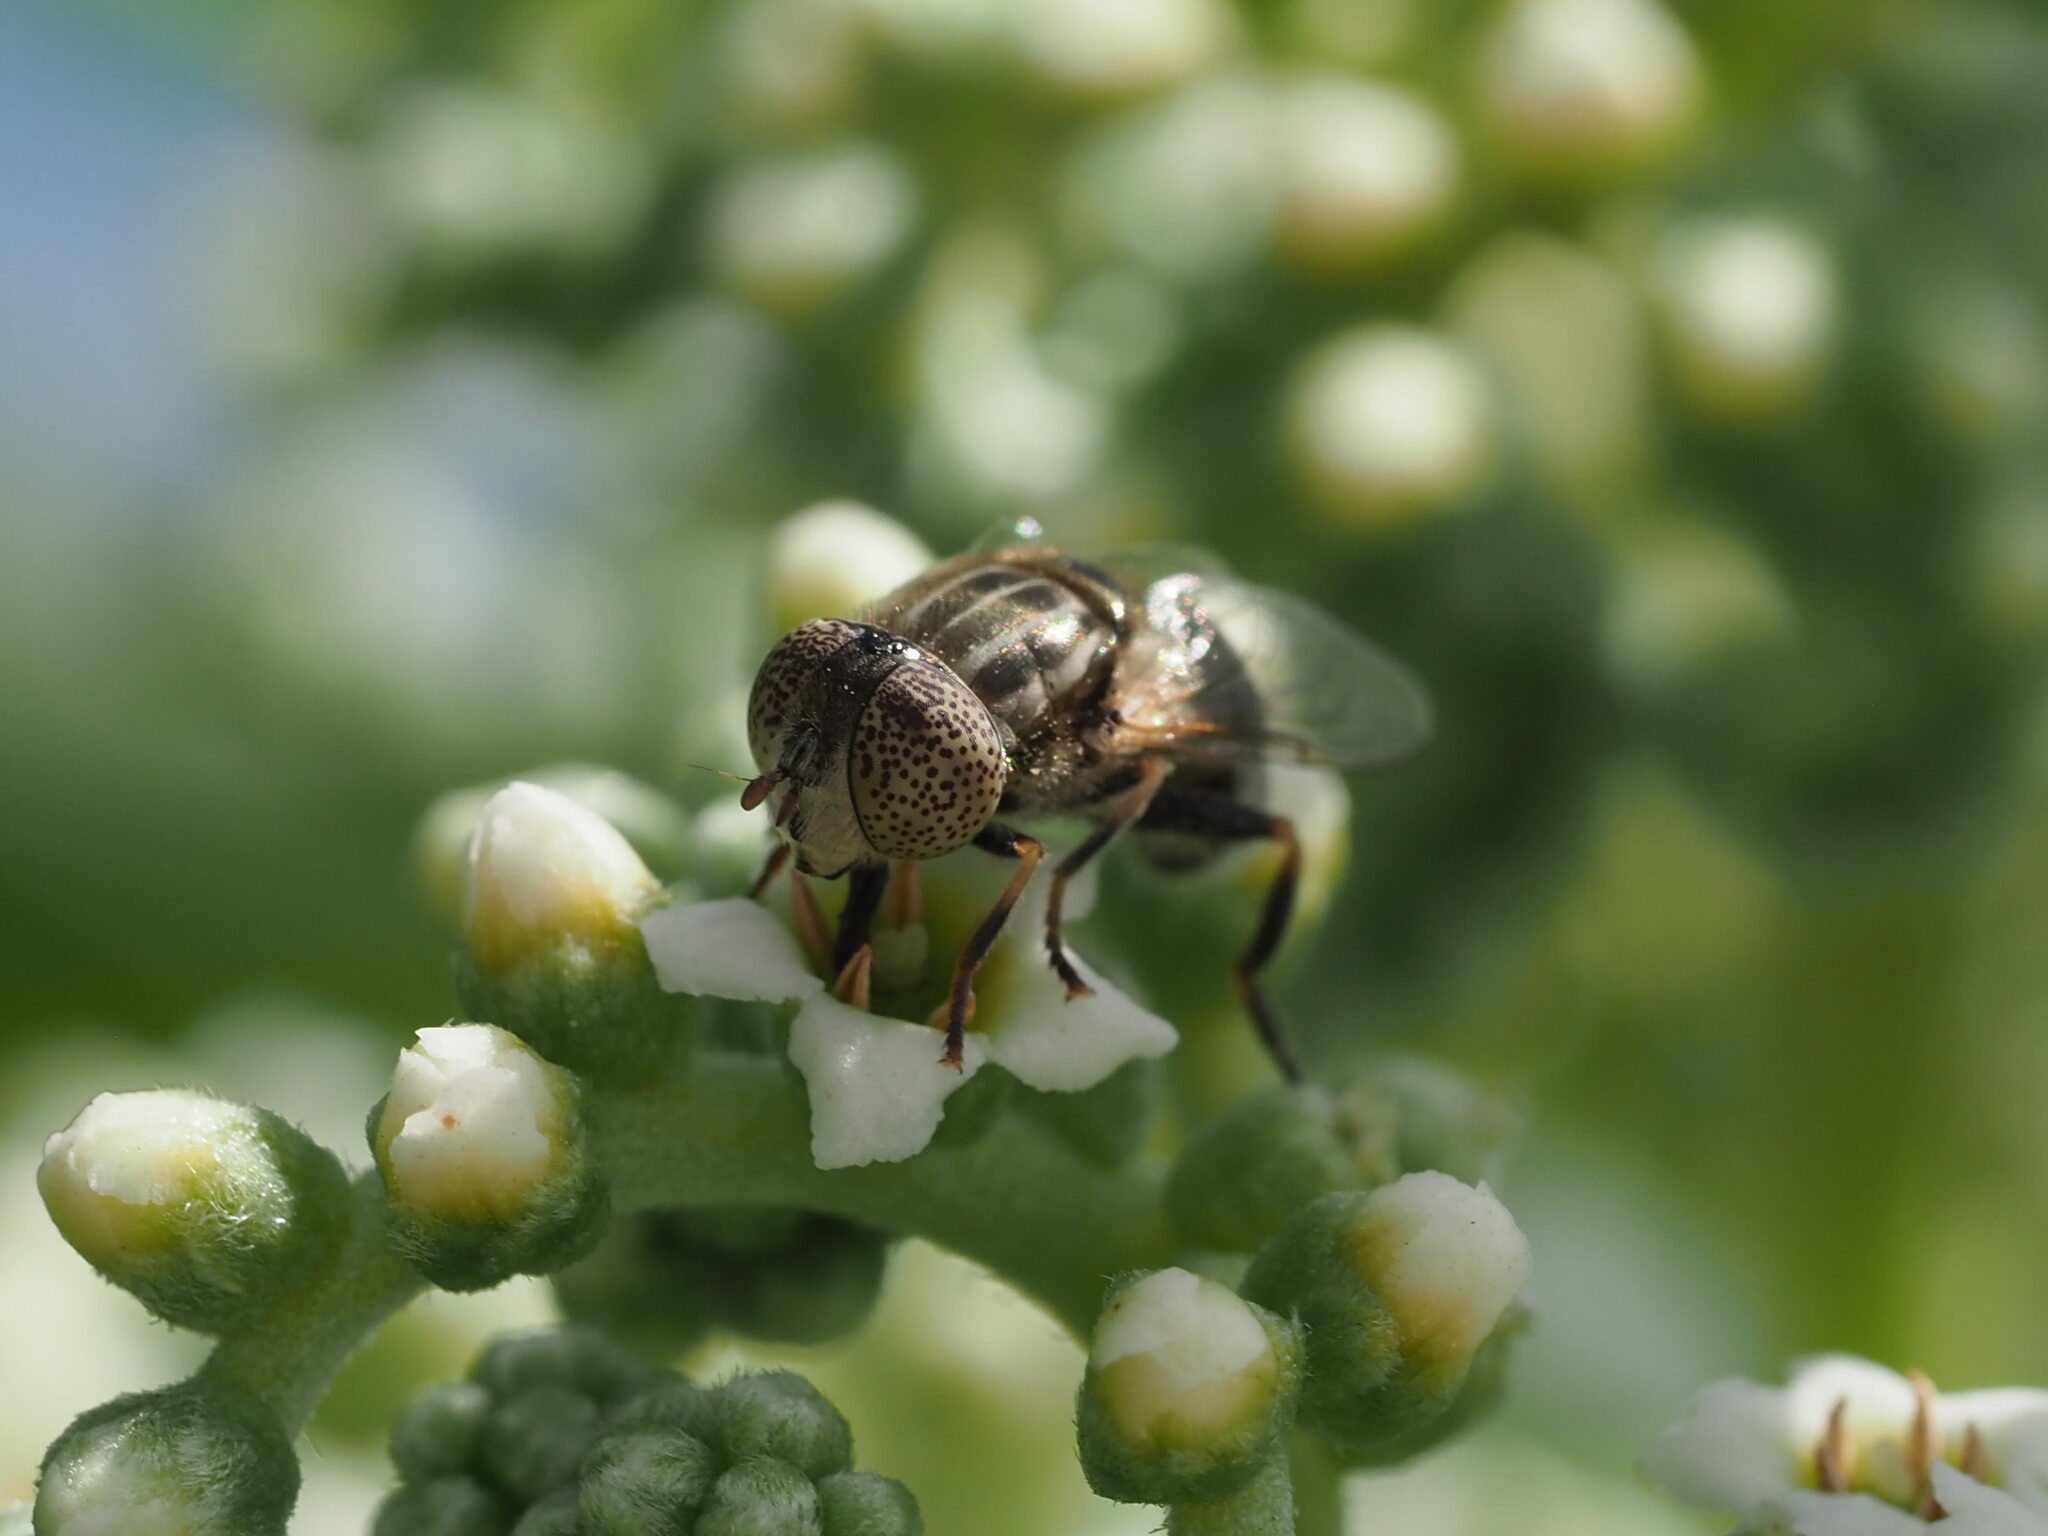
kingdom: Animalia
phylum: Arthropoda
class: Insecta
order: Diptera
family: Syrphidae
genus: Eristalinus
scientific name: Eristalinus aeneus
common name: Syrphid fly
